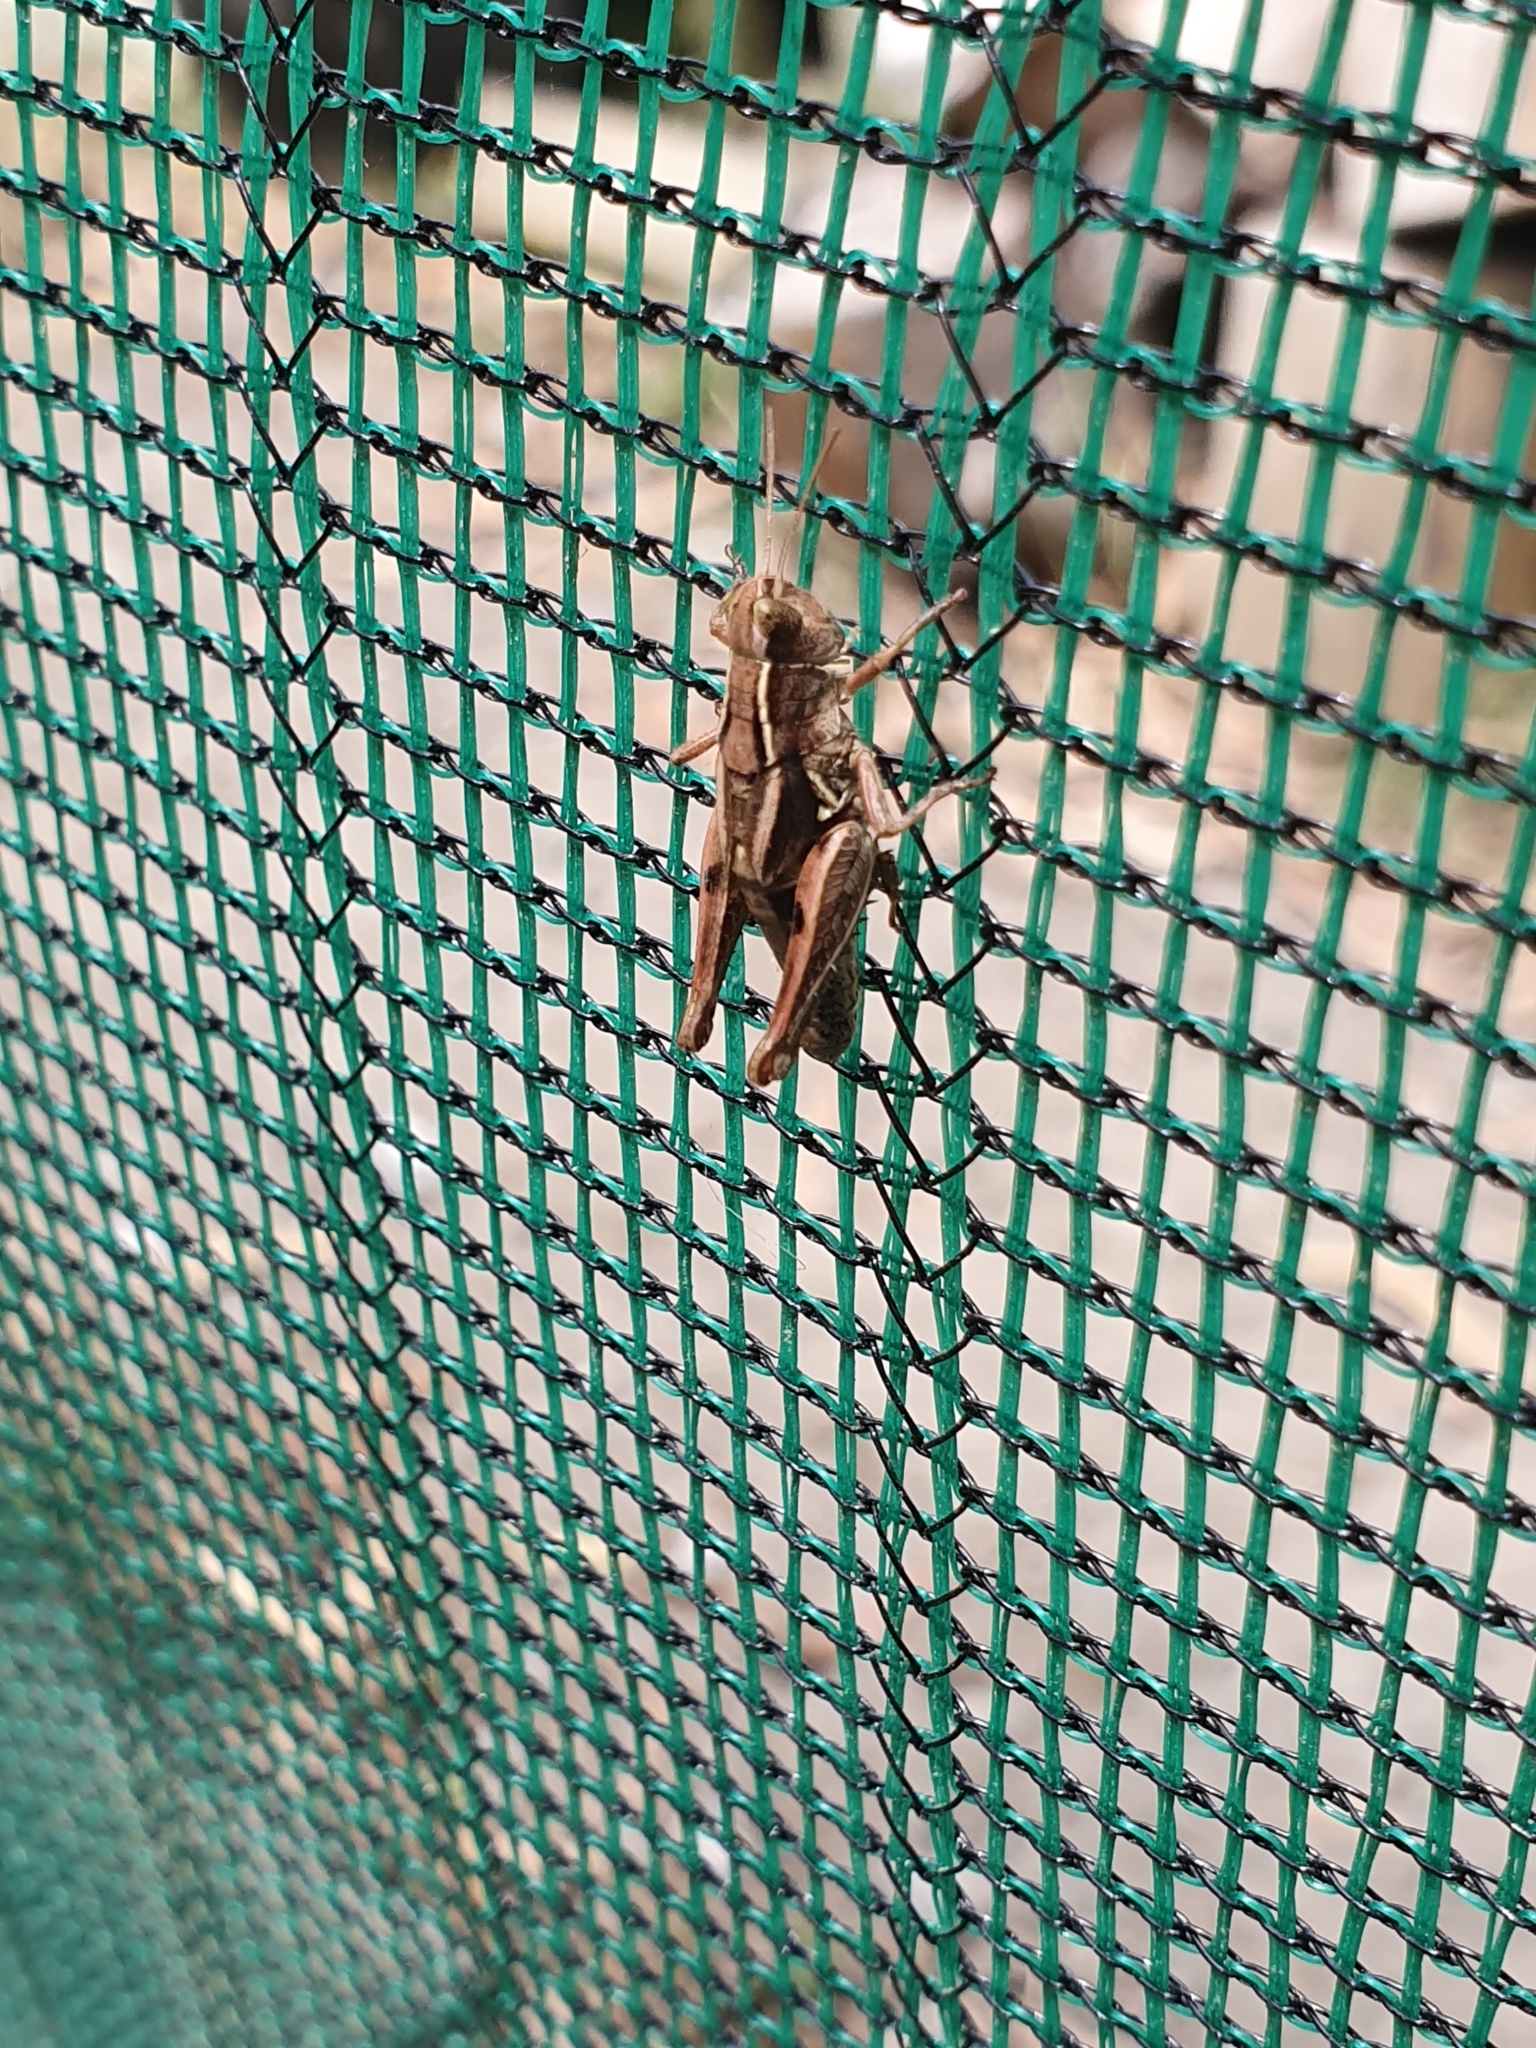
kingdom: Animalia
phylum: Arthropoda
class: Insecta
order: Orthoptera
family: Acrididae
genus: Phaulacridium
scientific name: Phaulacridium marginale
